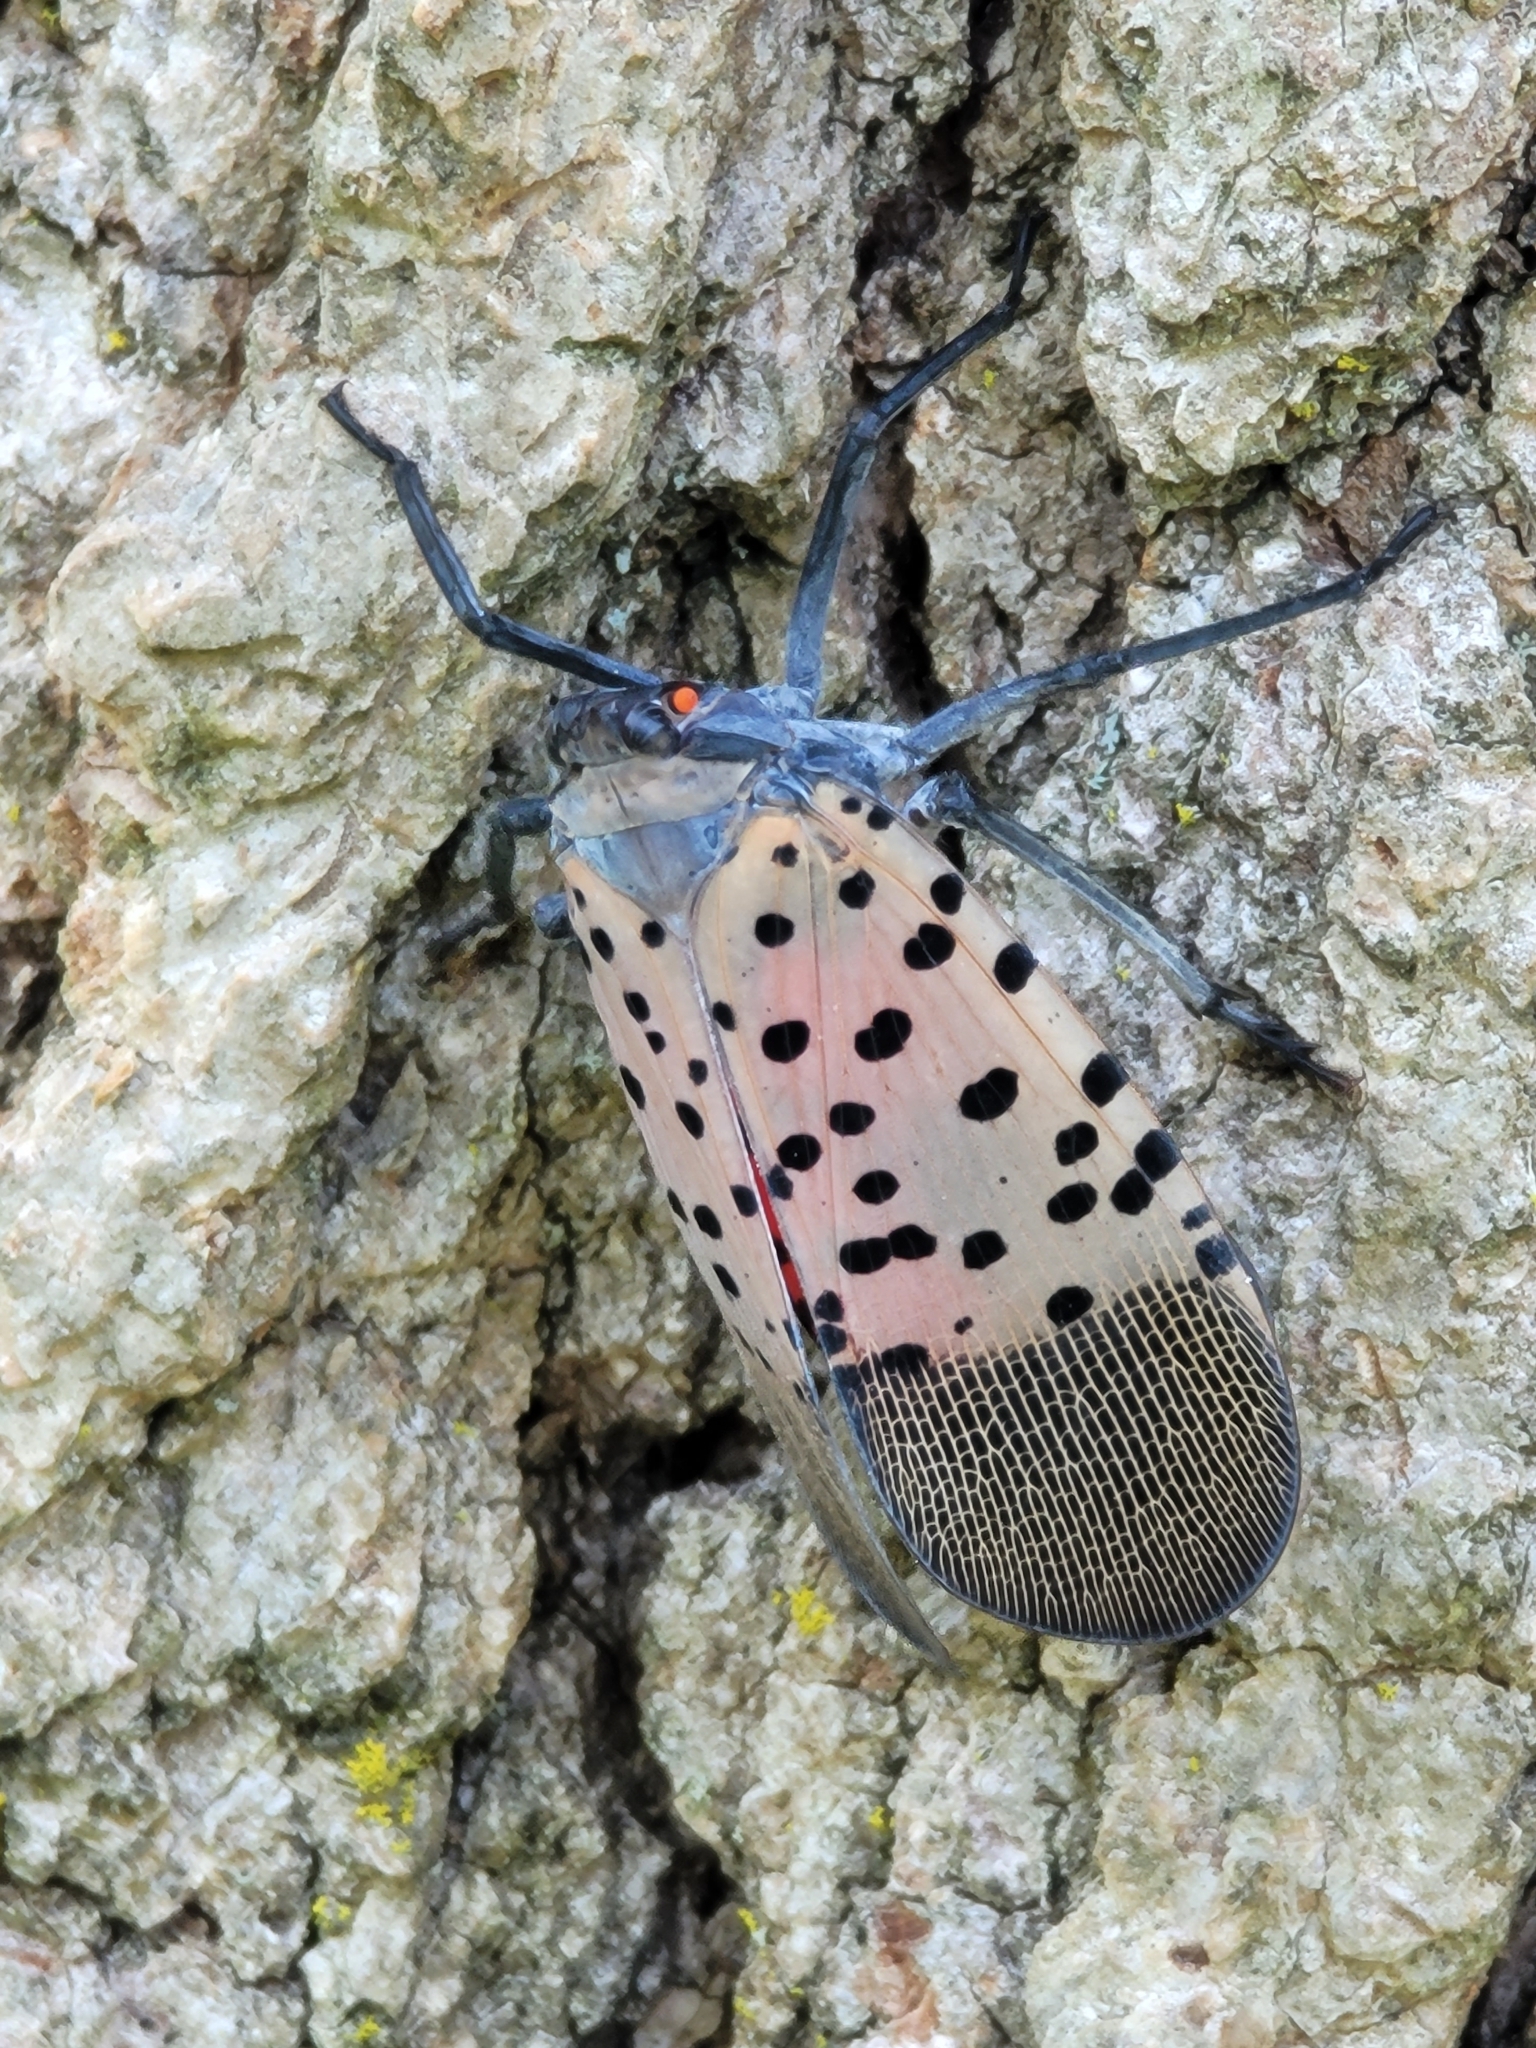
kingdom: Animalia
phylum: Arthropoda
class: Insecta
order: Hemiptera
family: Fulgoridae
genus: Lycorma
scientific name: Lycorma delicatula
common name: Spotted lanternfly
